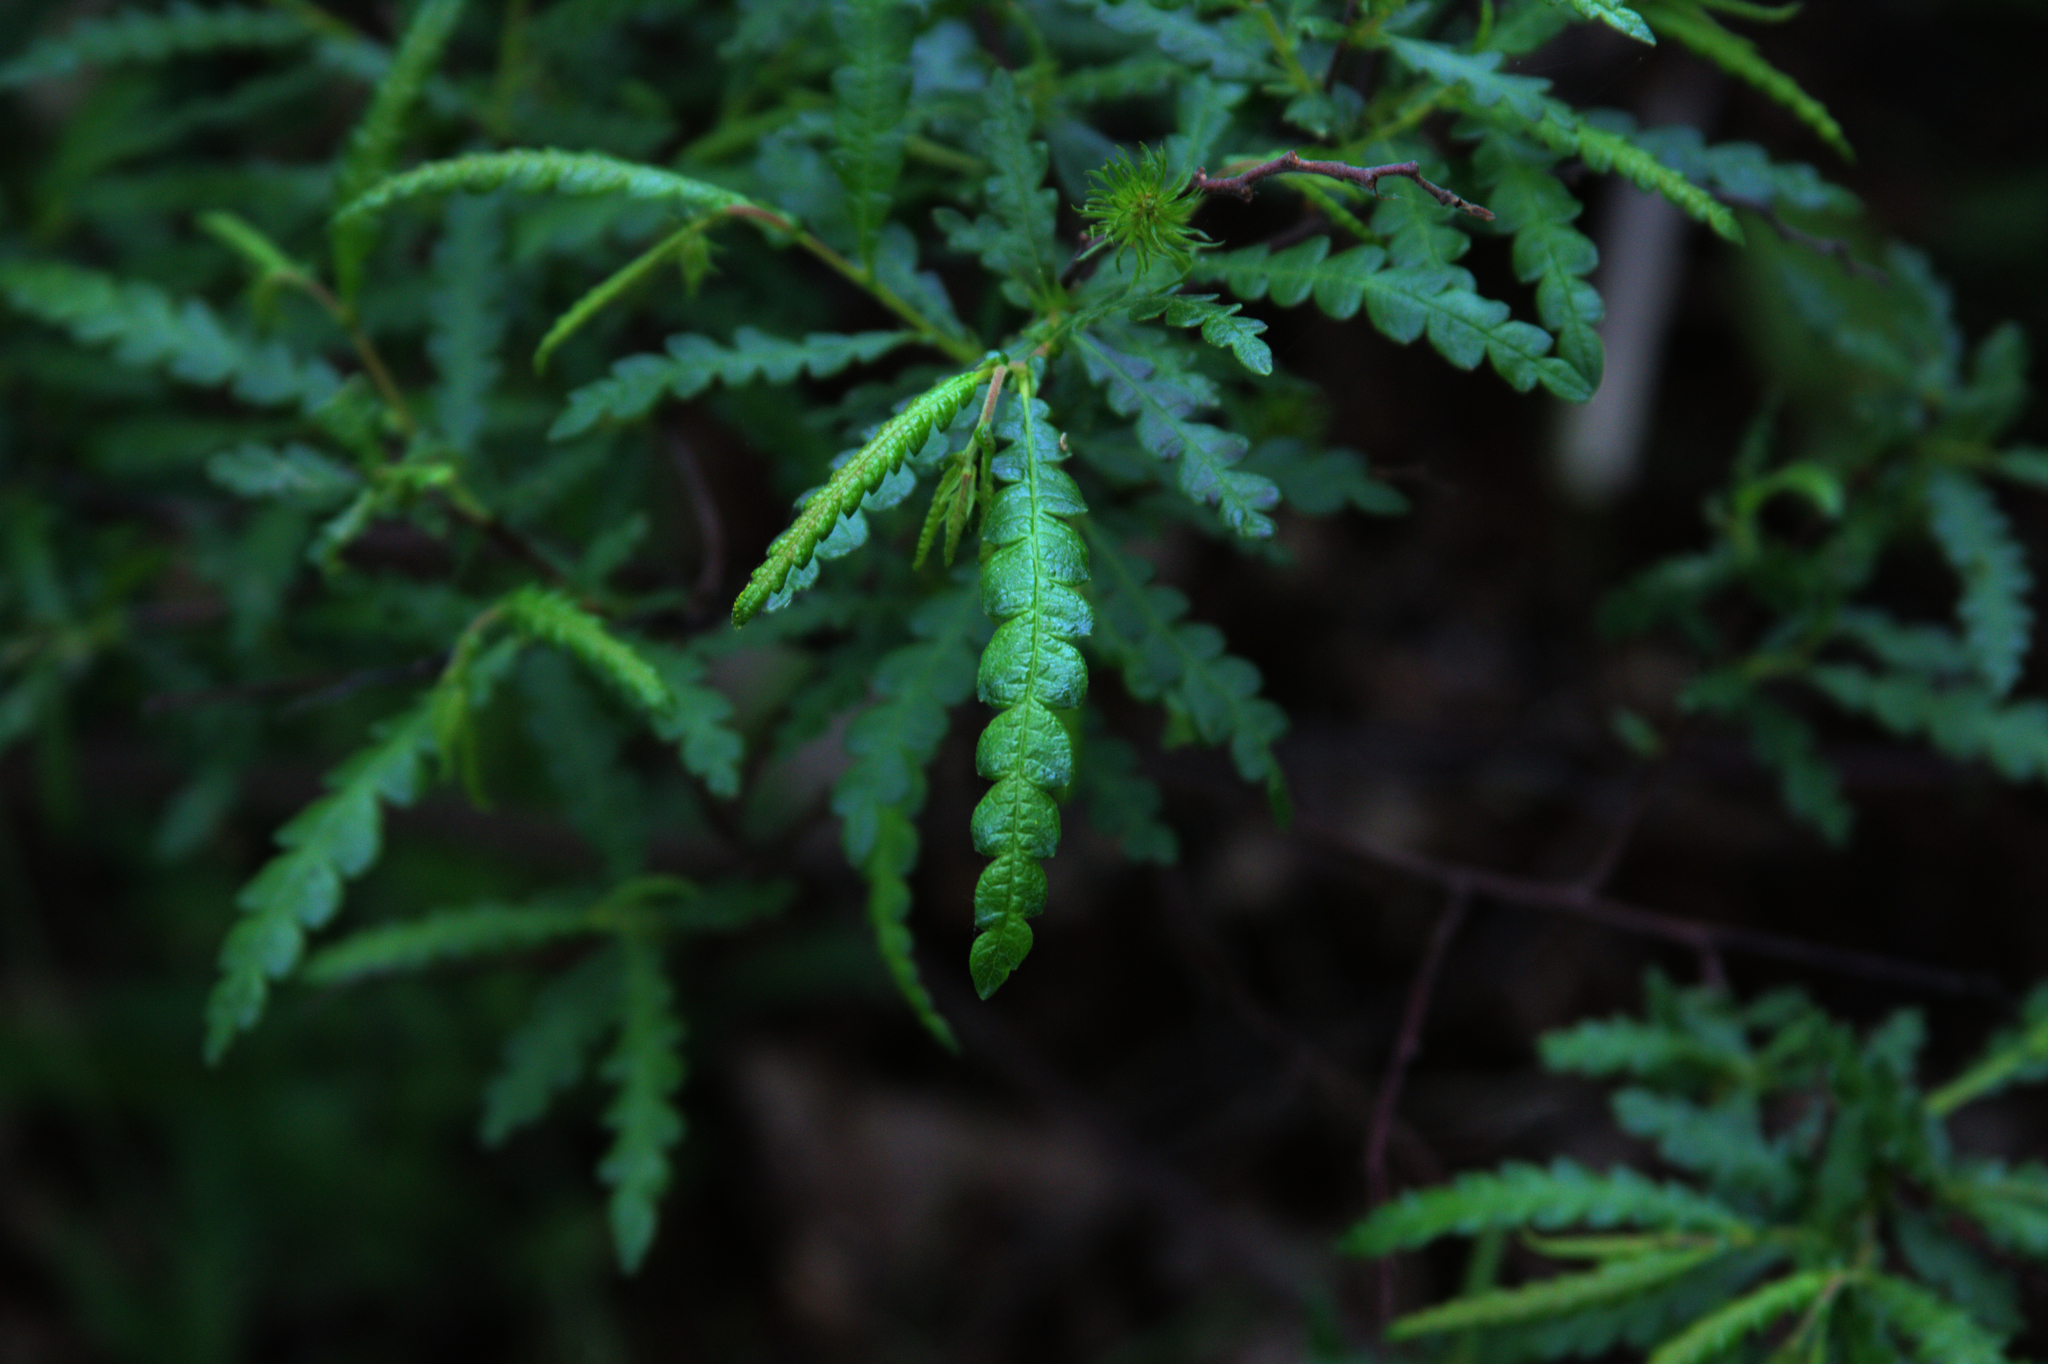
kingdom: Plantae
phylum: Tracheophyta
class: Magnoliopsida
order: Fagales
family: Myricaceae
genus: Comptonia
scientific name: Comptonia peregrina
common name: Sweet-fern
